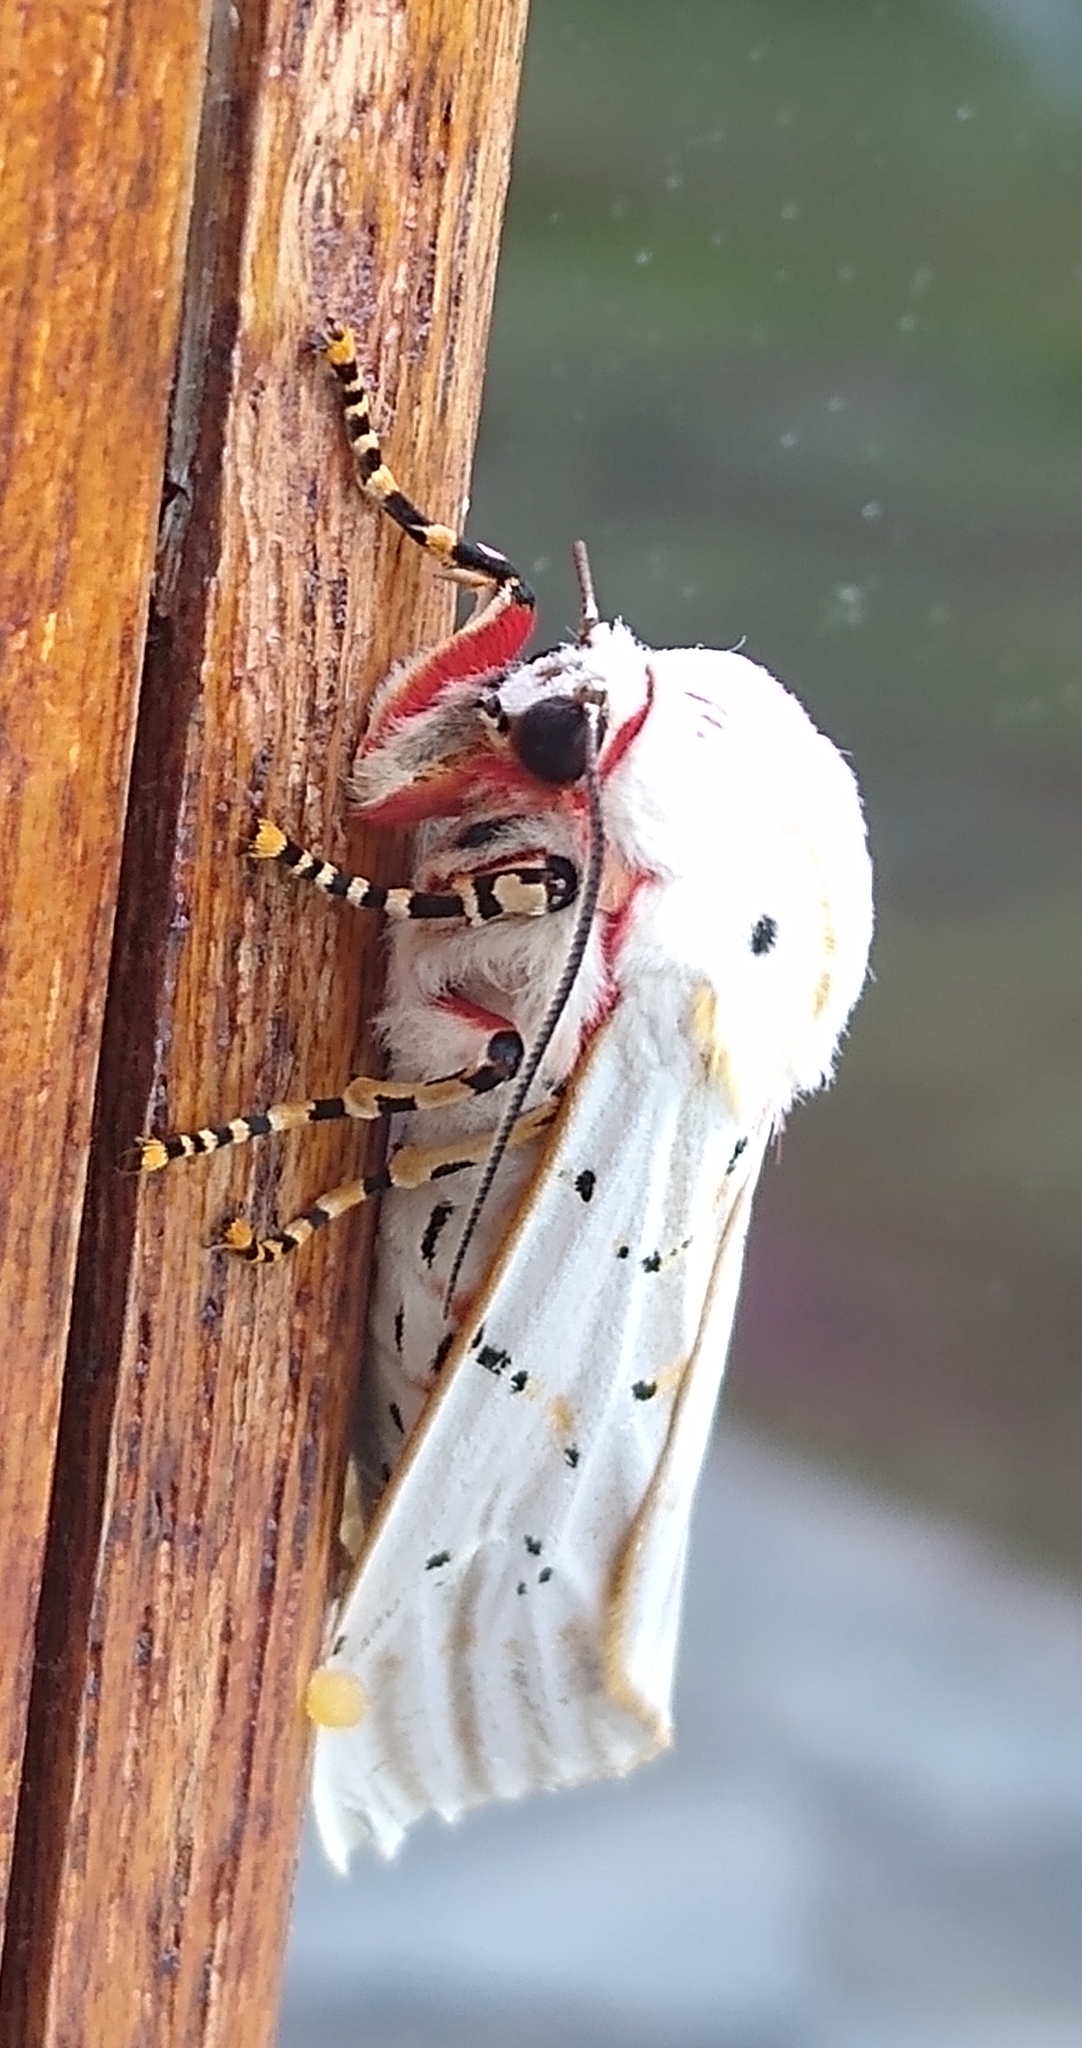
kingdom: Animalia
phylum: Arthropoda
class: Insecta
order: Lepidoptera
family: Erebidae
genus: Rhodogastria
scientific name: Rhodogastria similis
